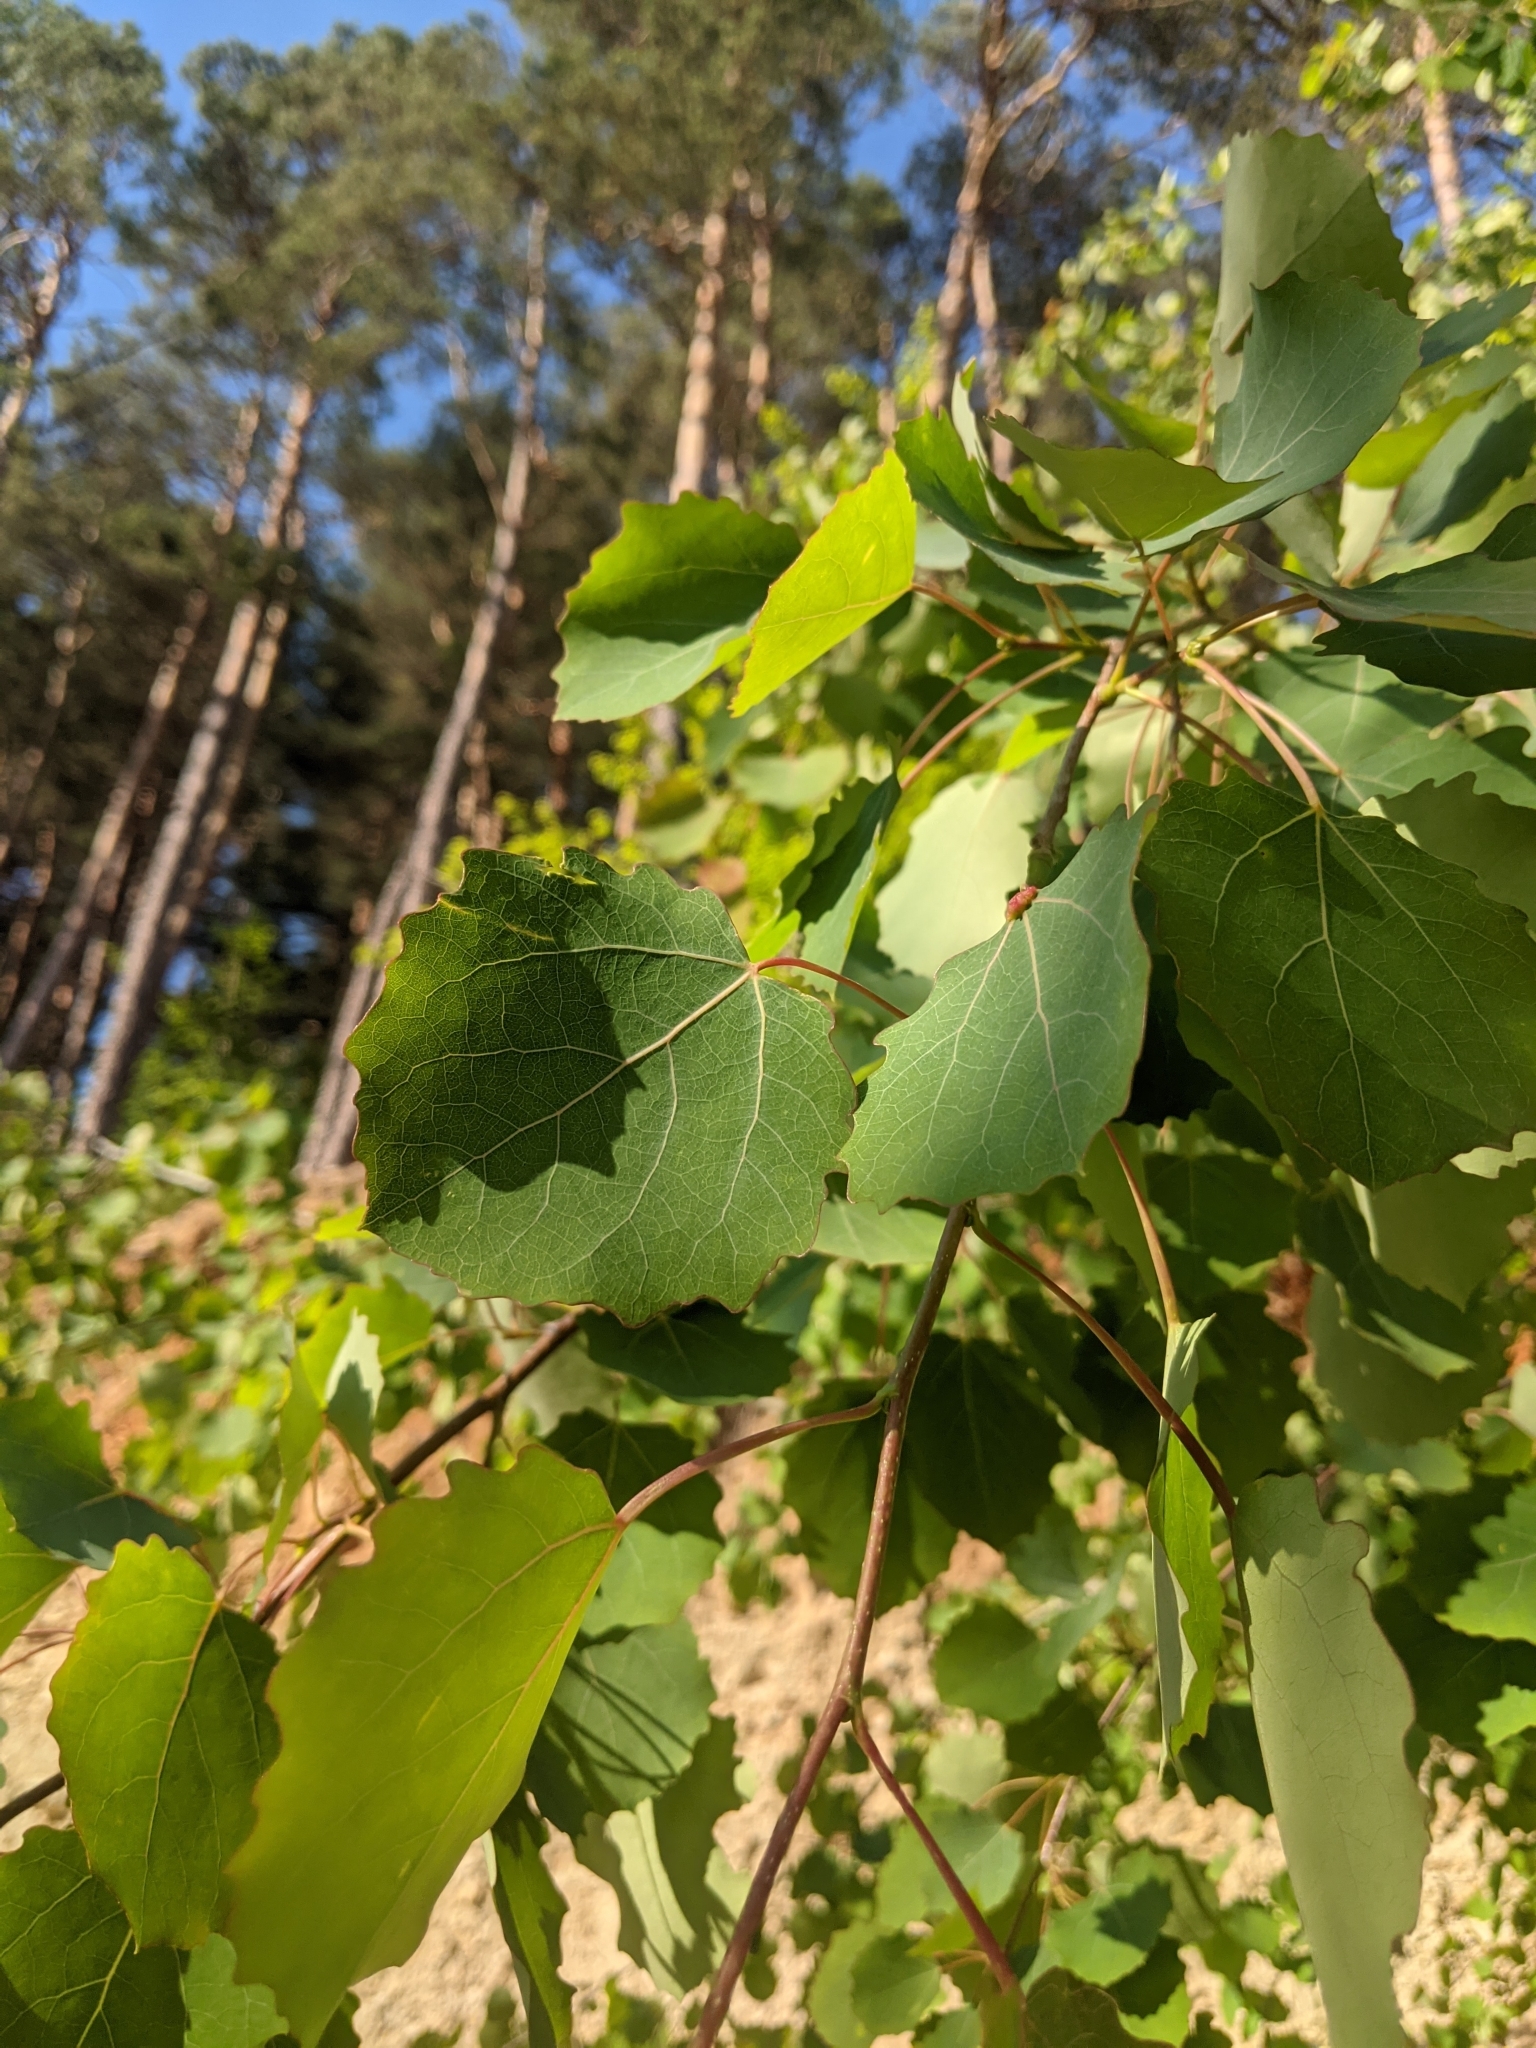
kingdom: Plantae
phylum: Tracheophyta
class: Magnoliopsida
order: Malpighiales
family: Salicaceae
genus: Populus
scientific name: Populus tremula
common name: European aspen
